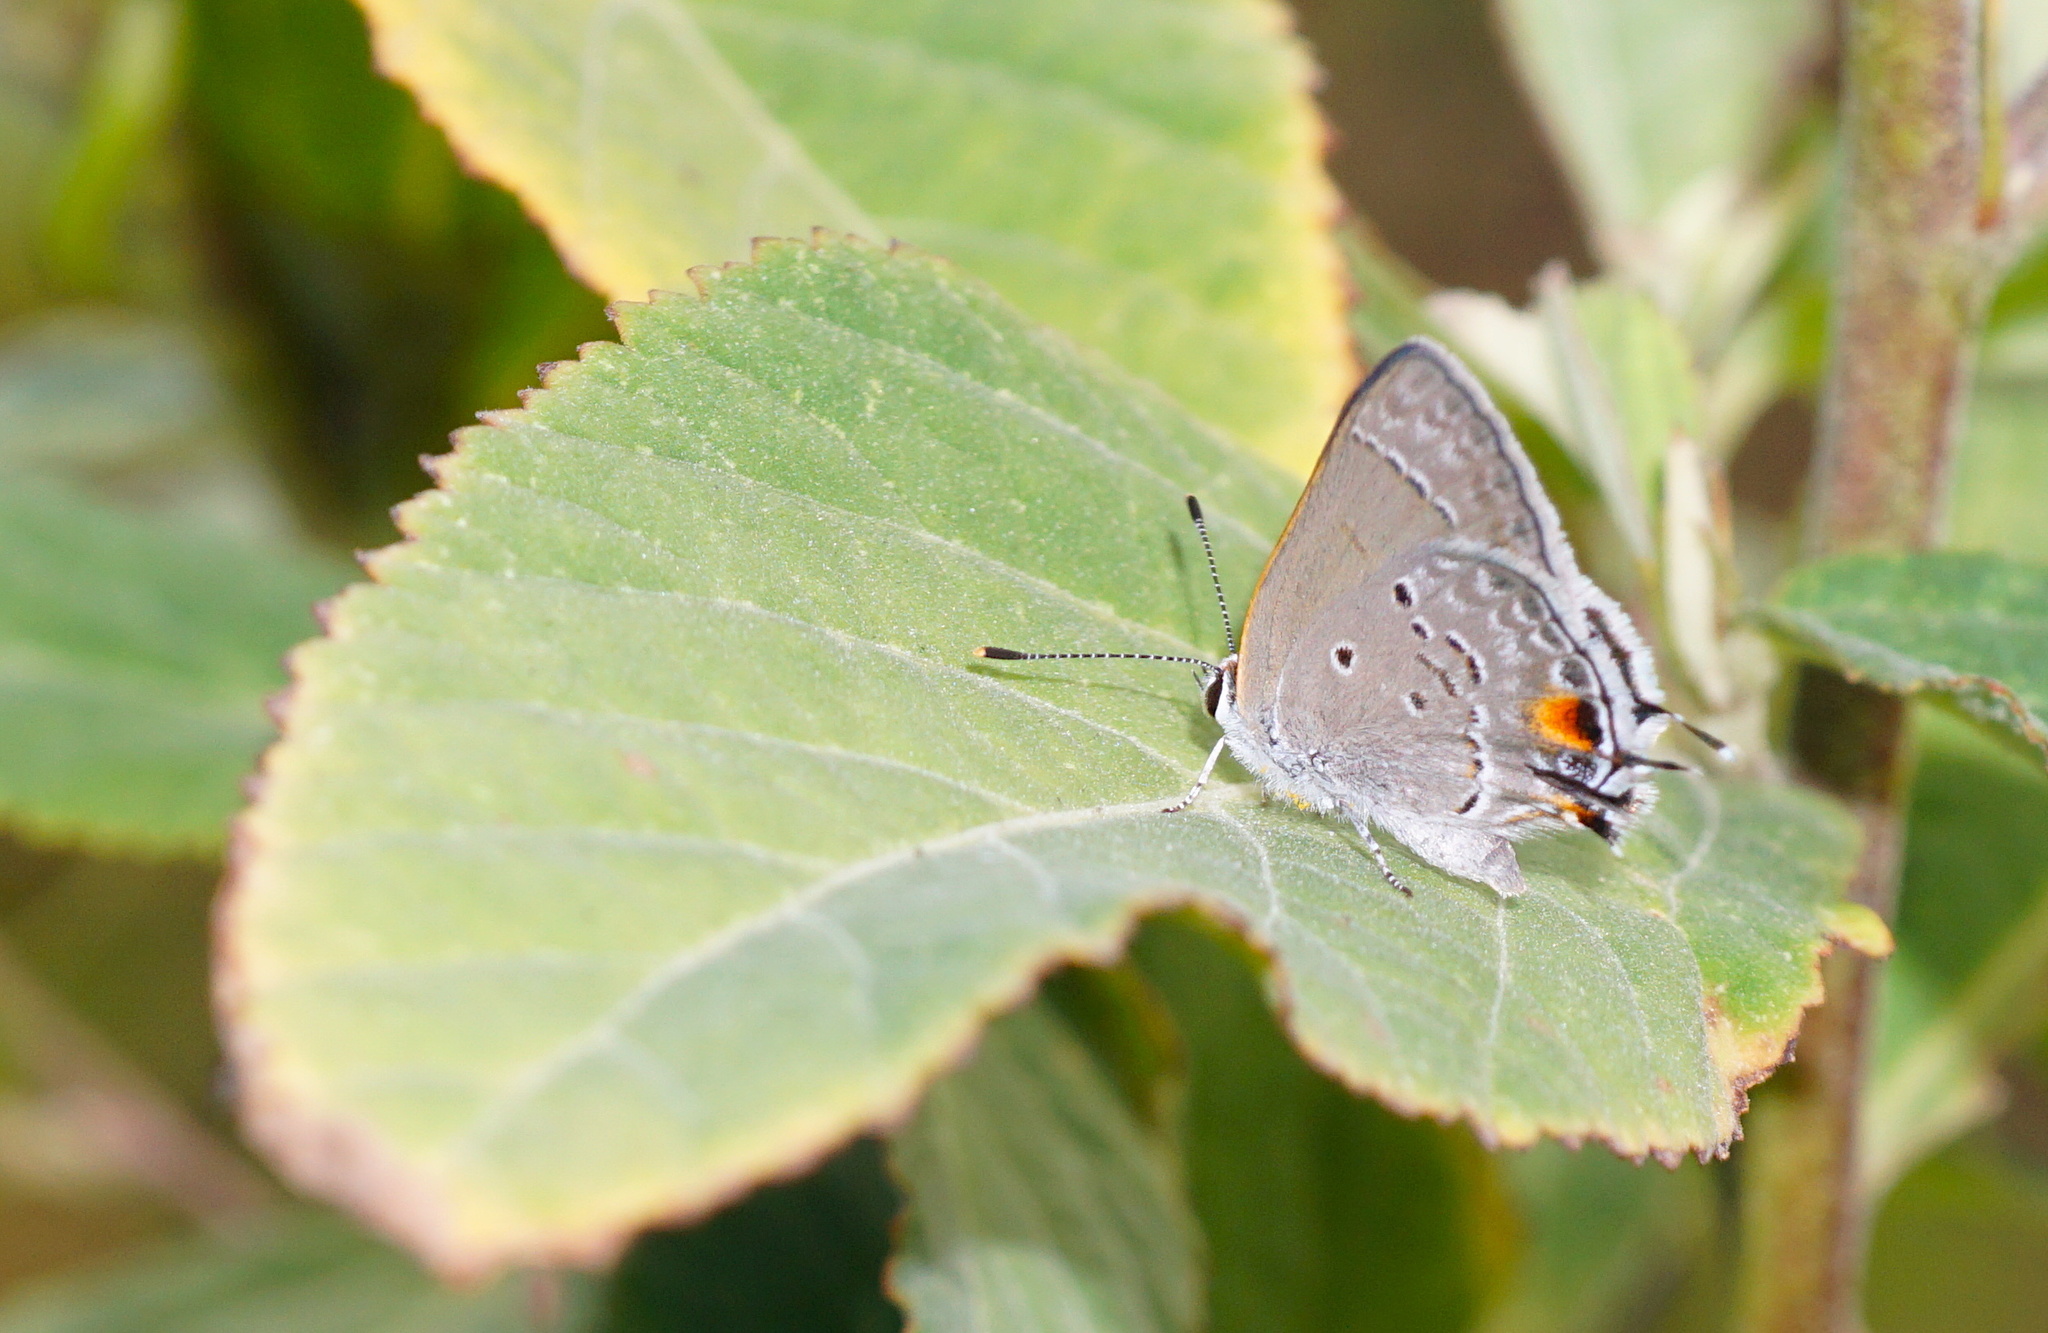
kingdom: Animalia
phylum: Arthropoda
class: Insecta
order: Lepidoptera
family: Lycaenidae
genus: Callicista
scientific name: Callicista columella
